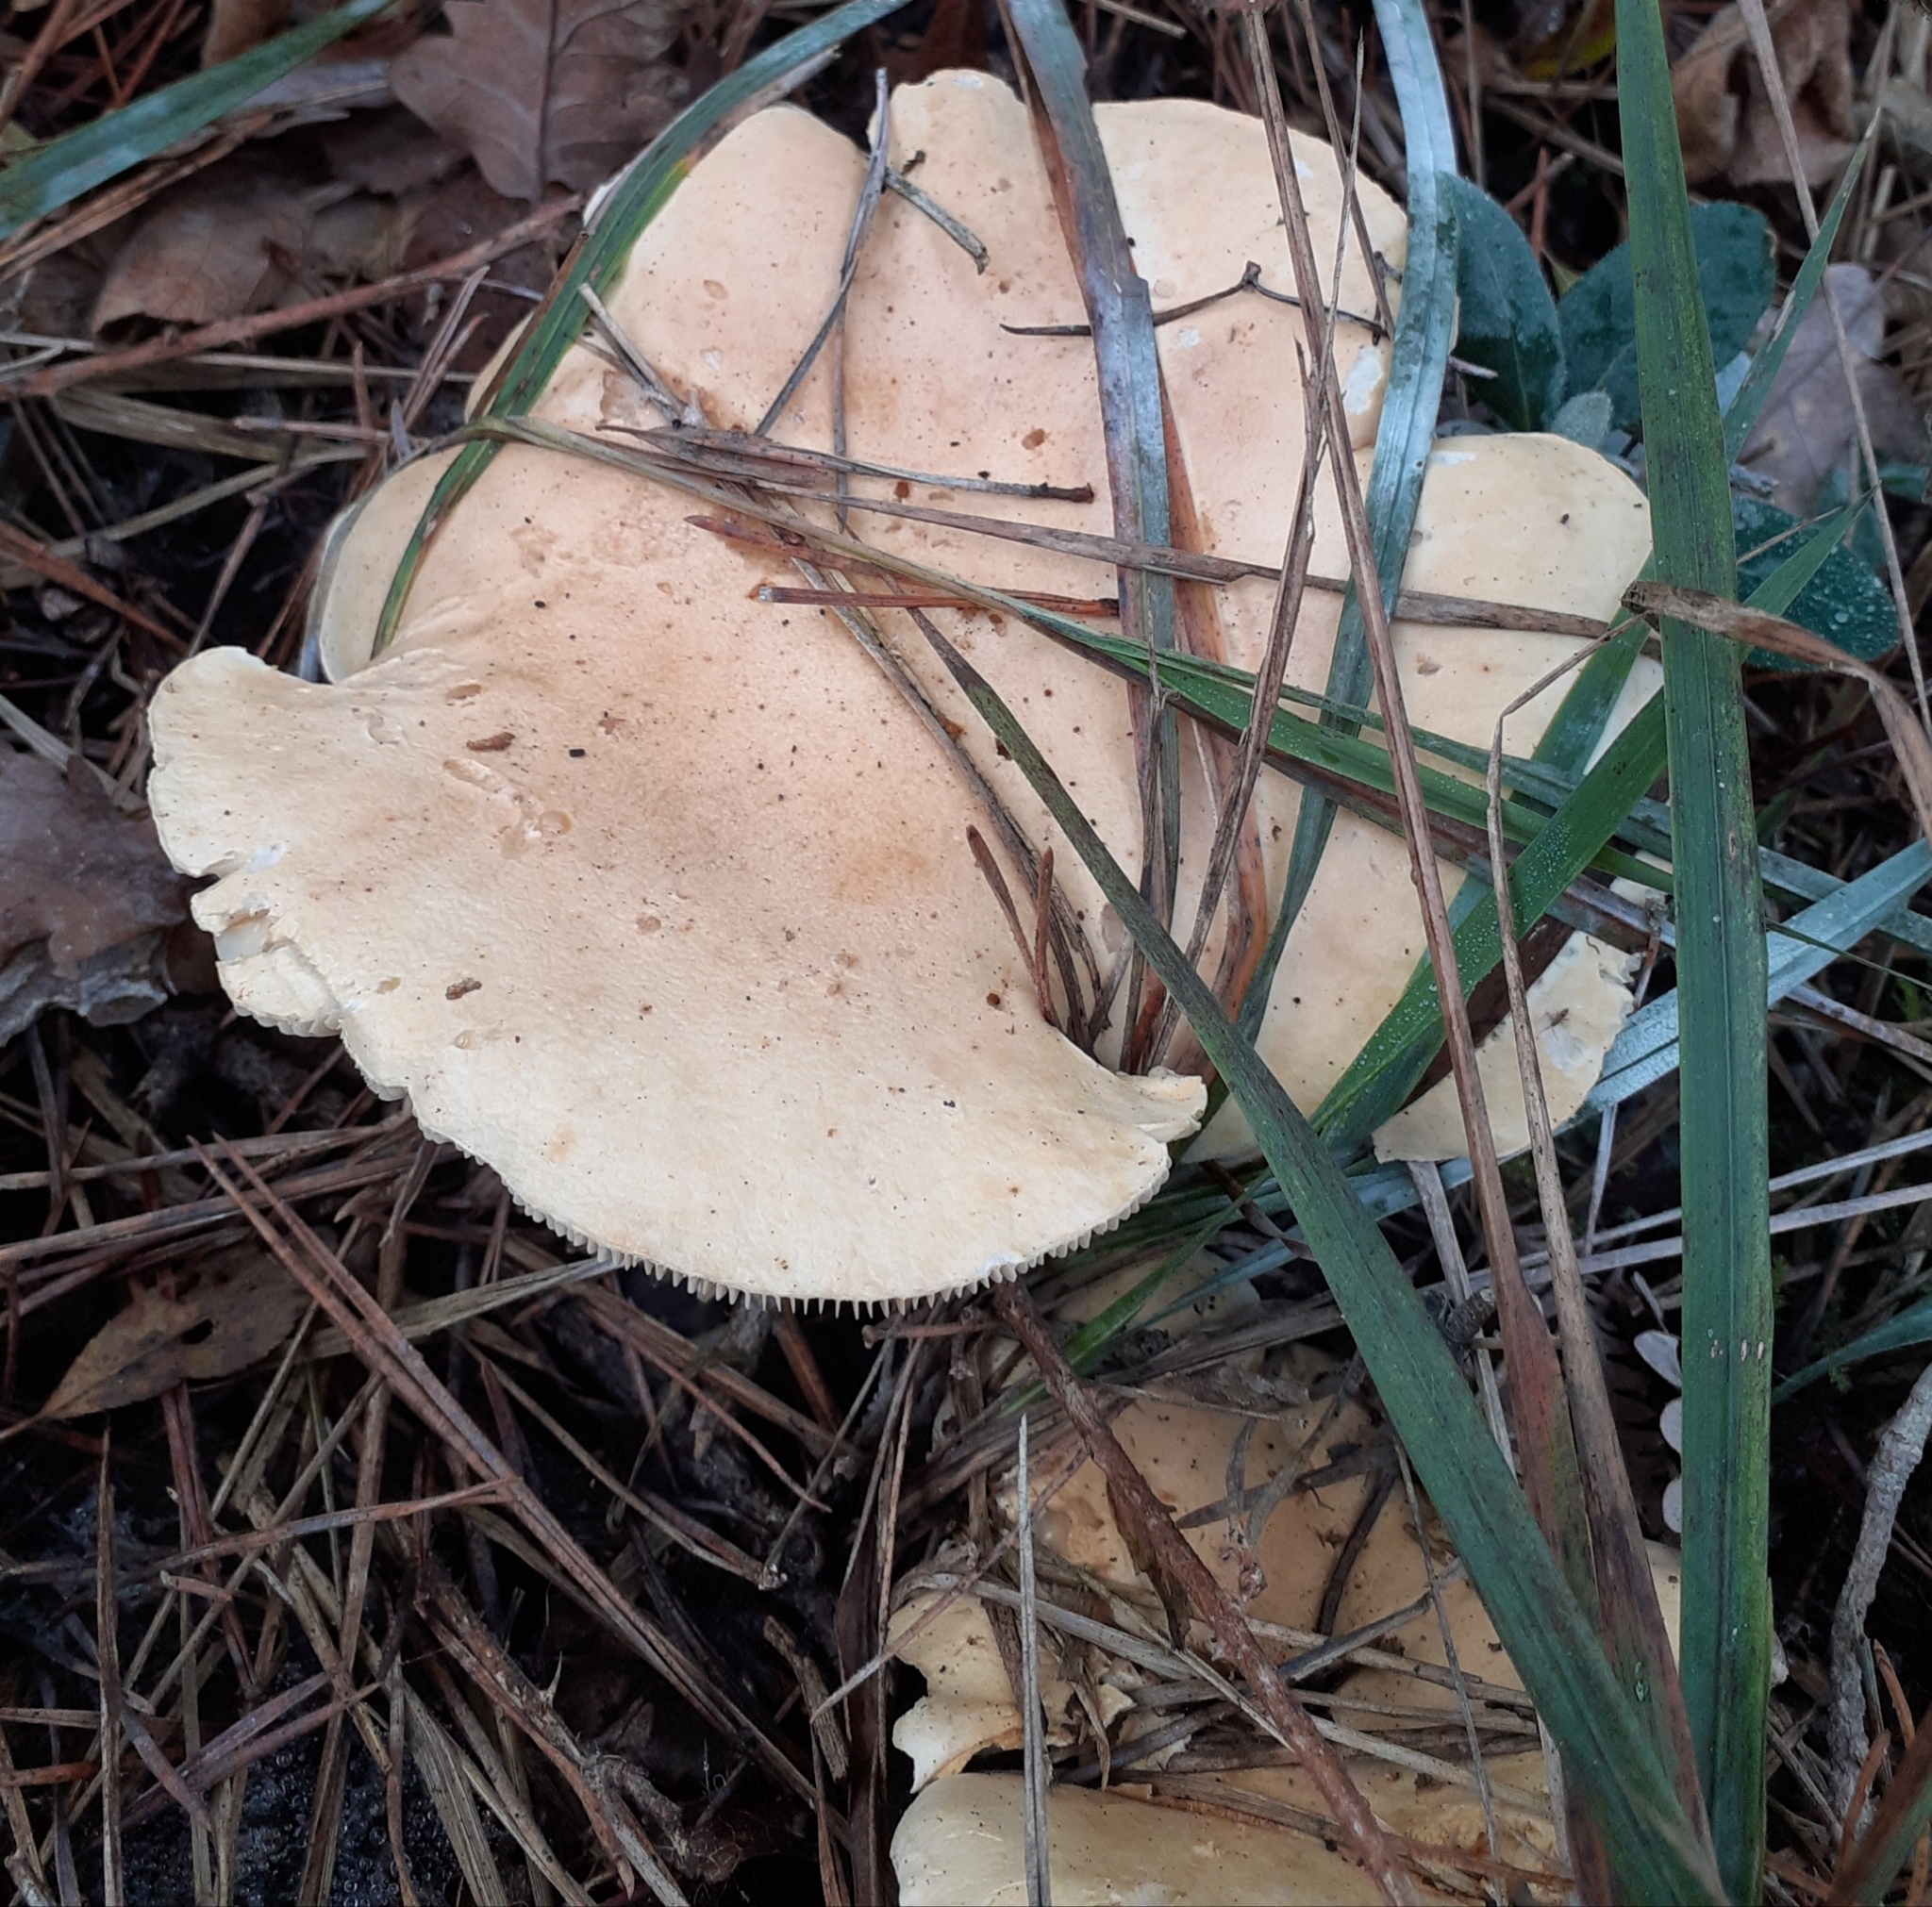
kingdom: Fungi
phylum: Basidiomycota
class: Agaricomycetes
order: Agaricales
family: Tricholomataceae
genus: Infundibulicybe
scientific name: Infundibulicybe gibba
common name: Common funnel
